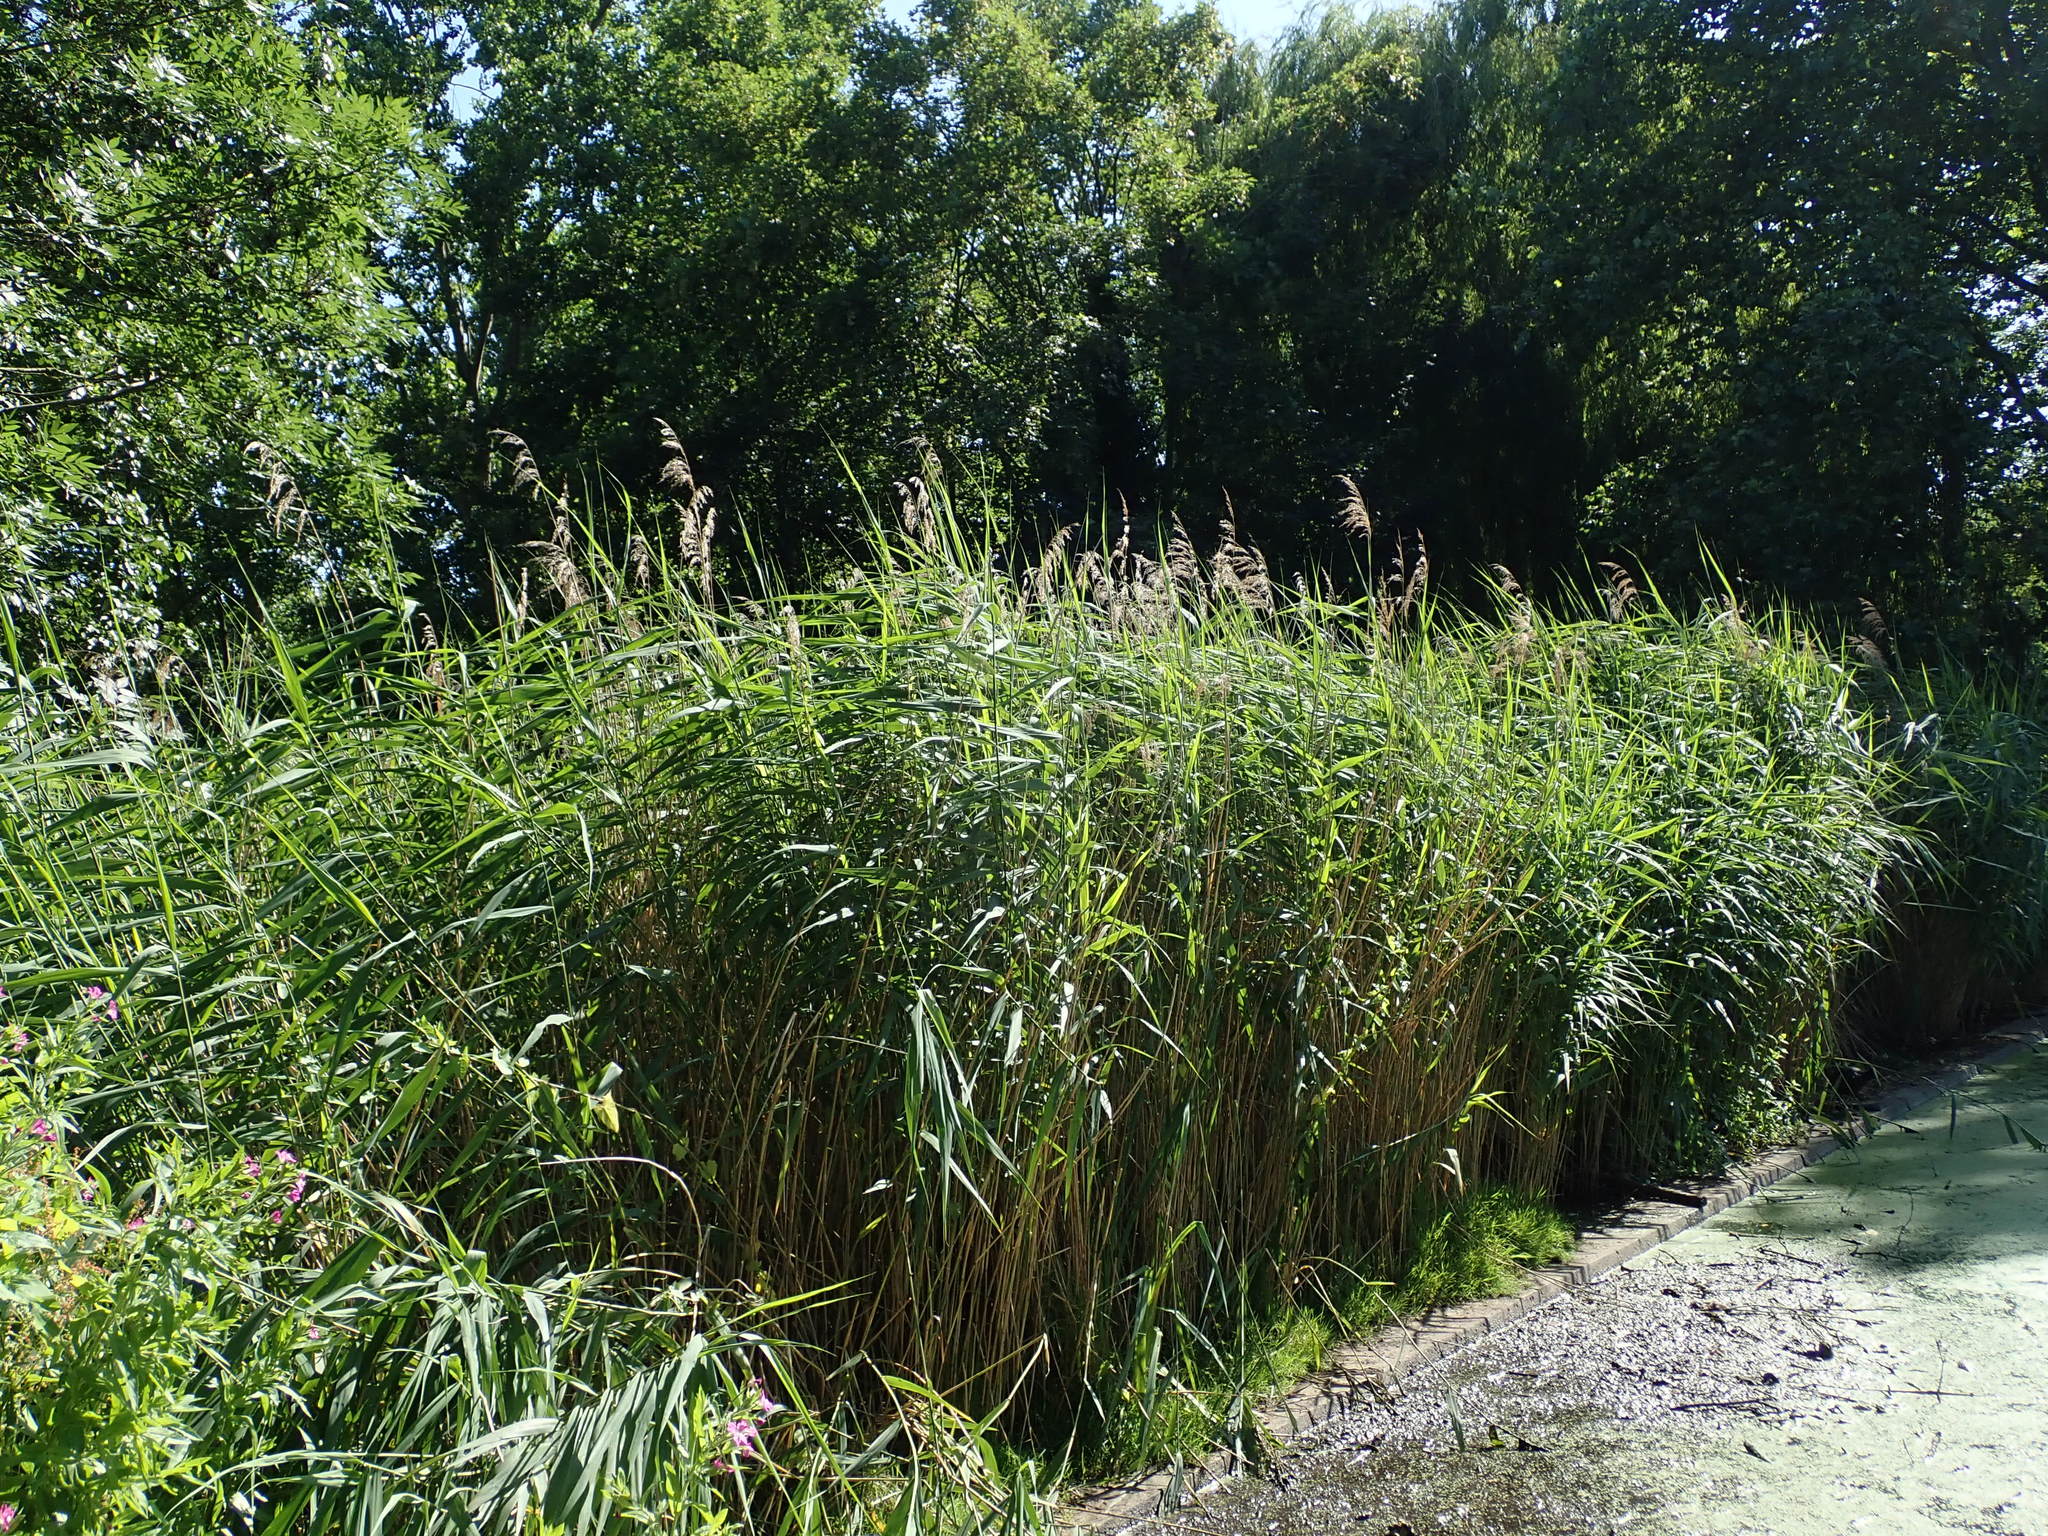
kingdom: Plantae
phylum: Tracheophyta
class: Liliopsida
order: Poales
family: Poaceae
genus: Phragmites
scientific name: Phragmites australis
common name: Common reed
